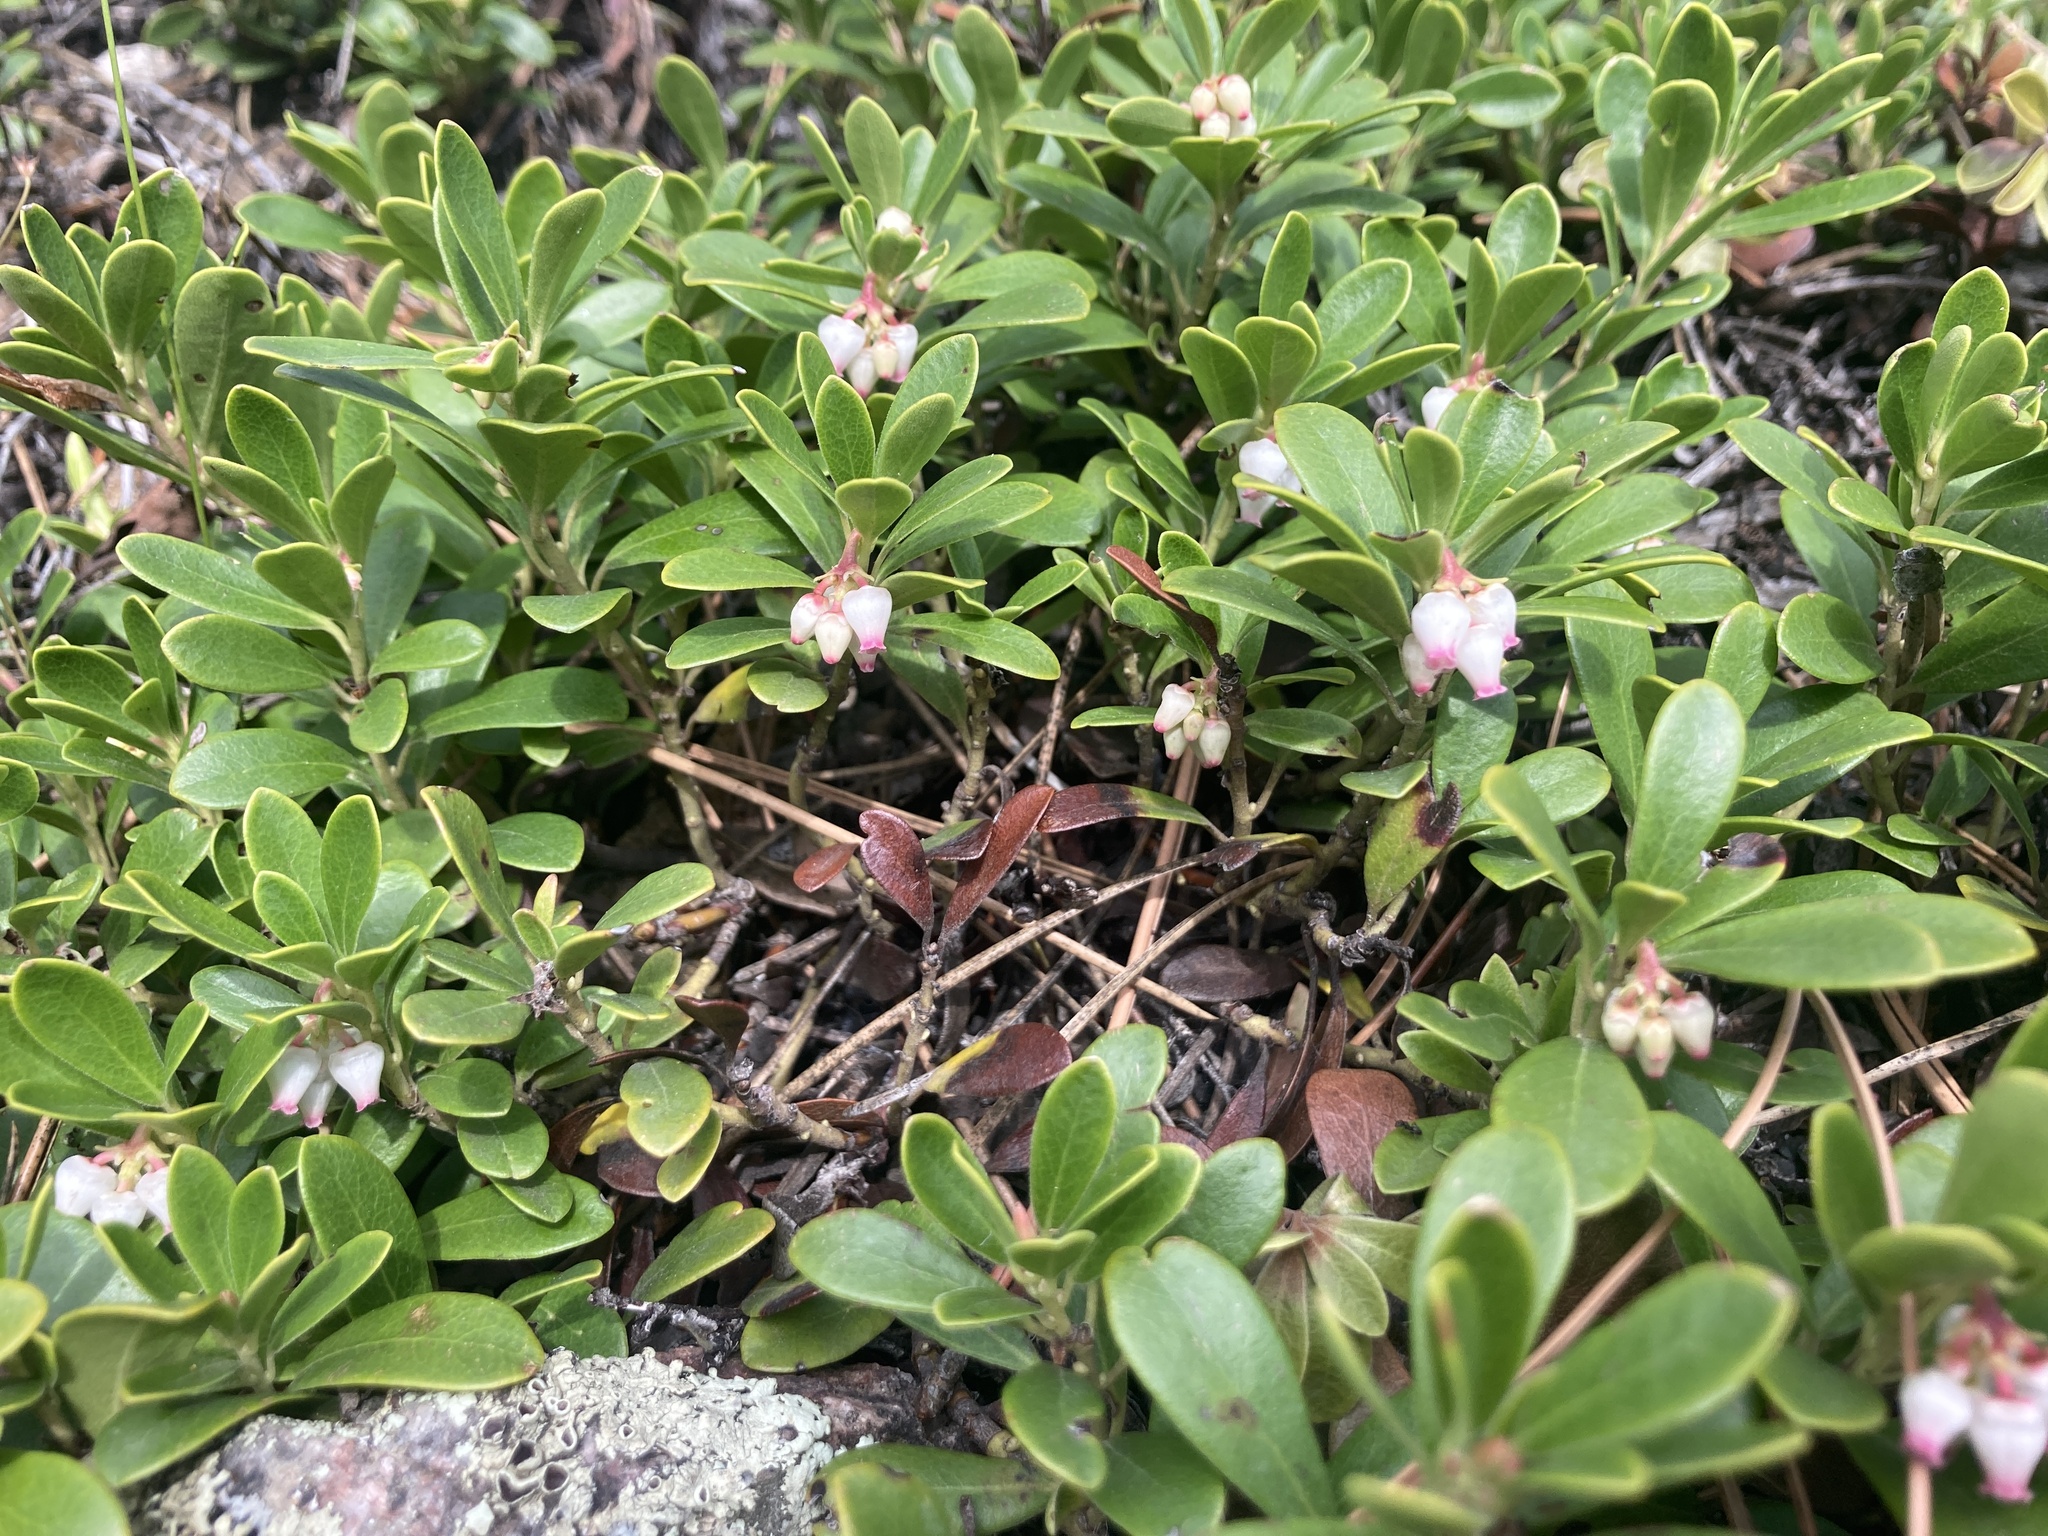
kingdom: Plantae
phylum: Tracheophyta
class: Magnoliopsida
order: Ericales
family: Ericaceae
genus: Arctostaphylos
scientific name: Arctostaphylos uva-ursi
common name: Bearberry
